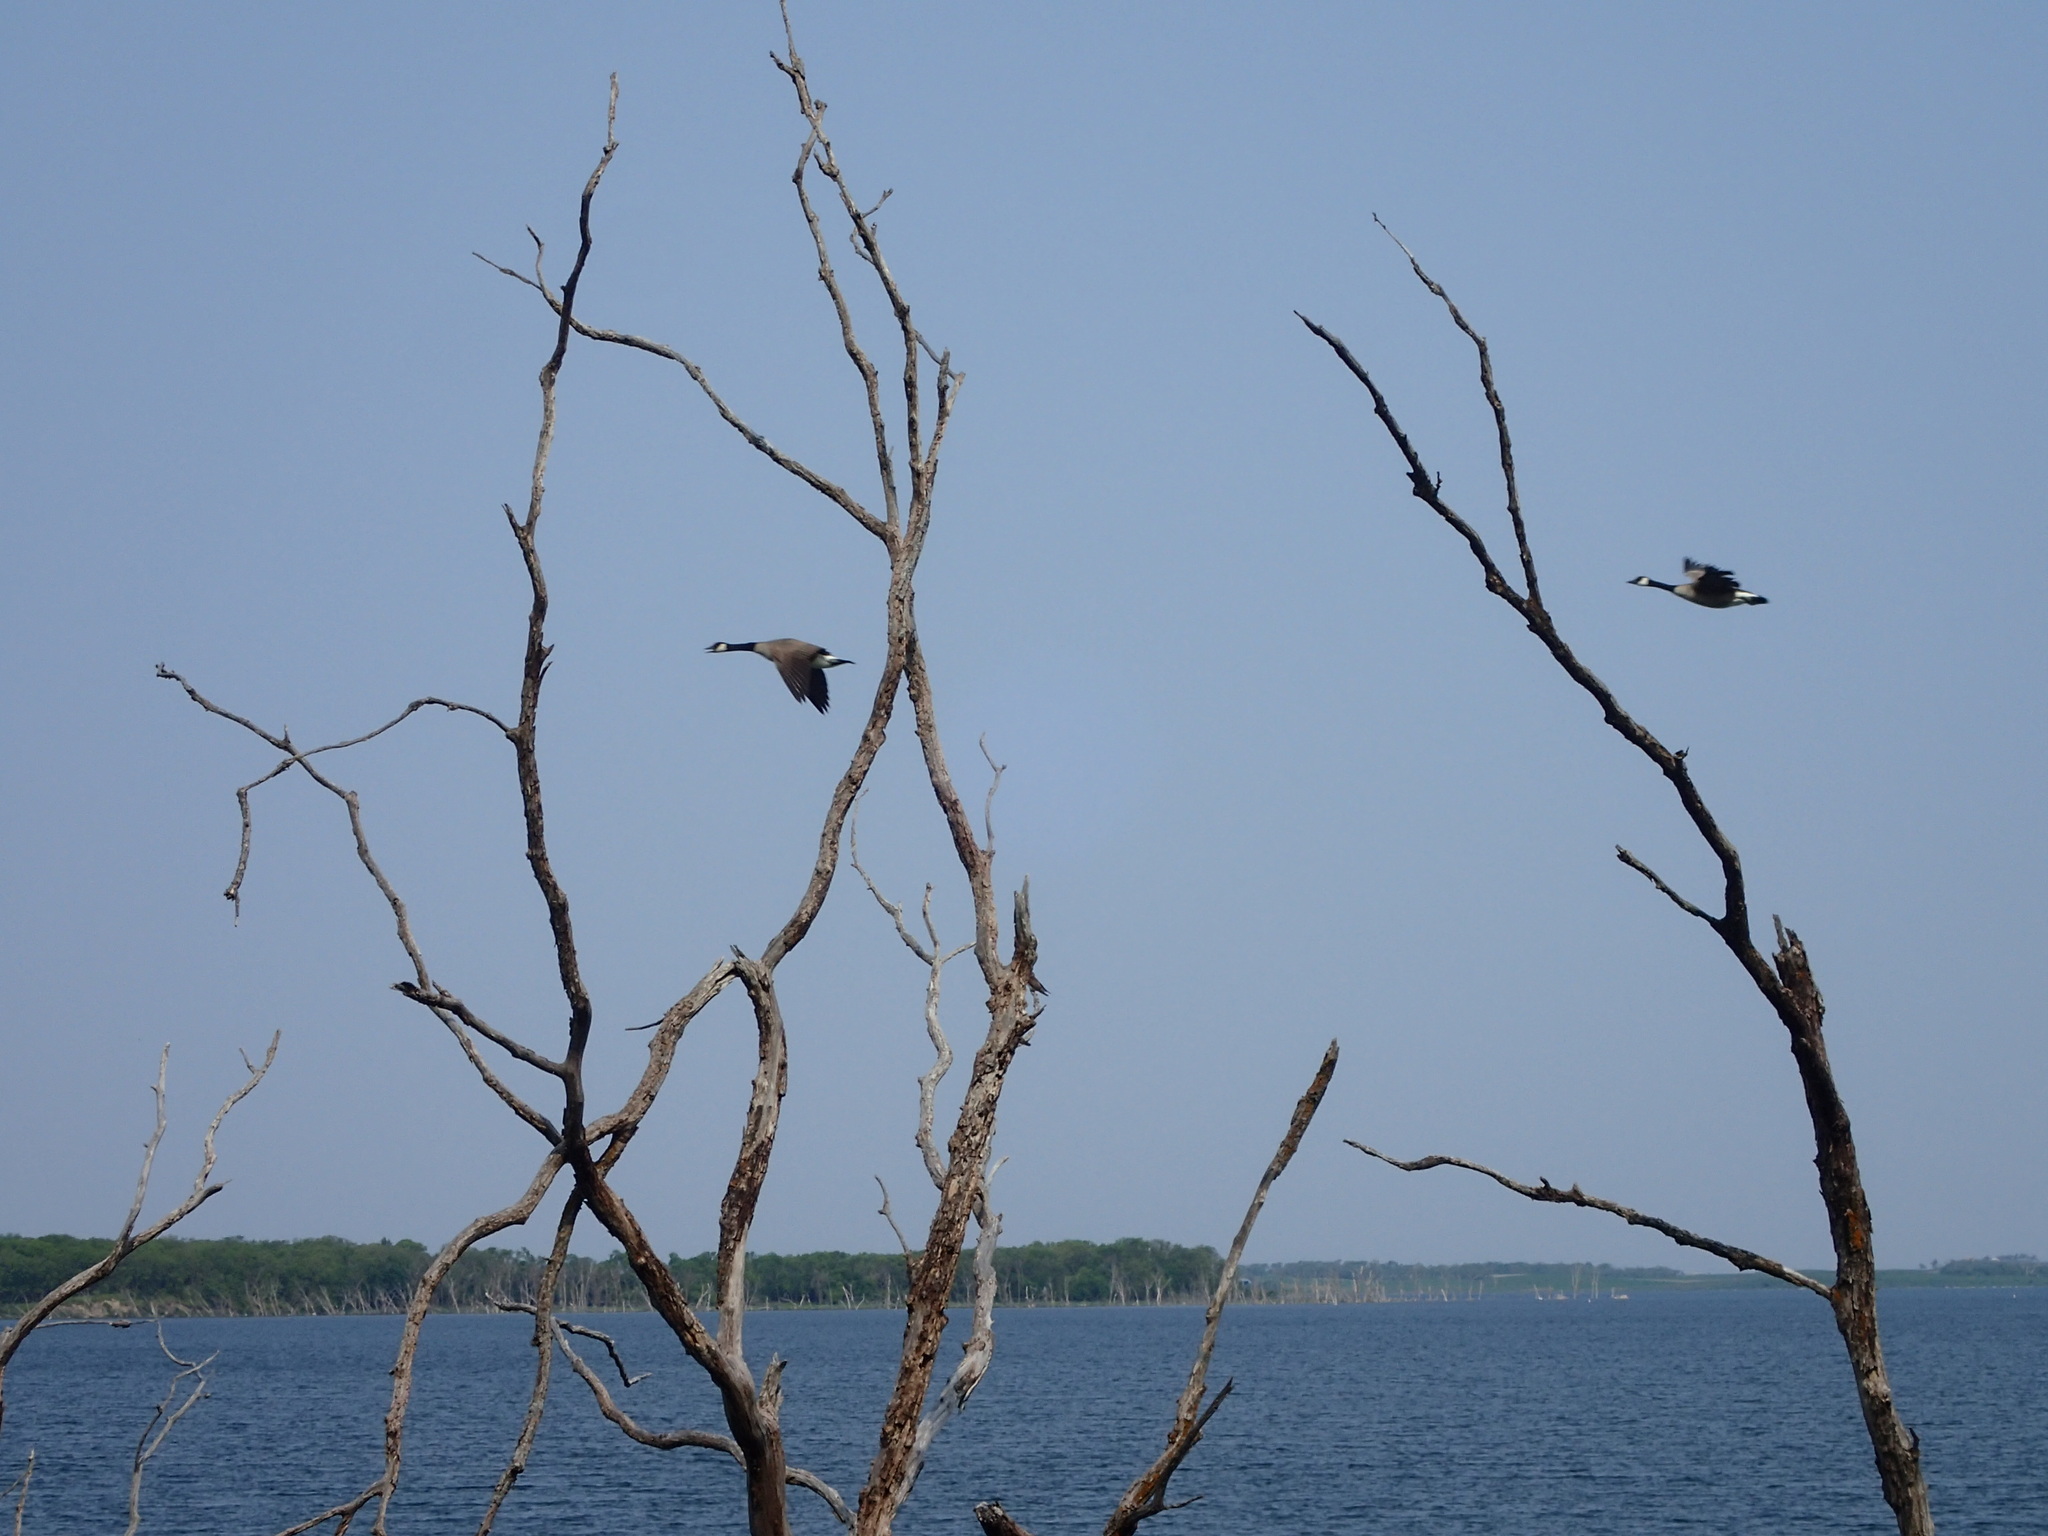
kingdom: Animalia
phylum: Chordata
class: Aves
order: Anseriformes
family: Anatidae
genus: Branta
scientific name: Branta canadensis
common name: Canada goose
